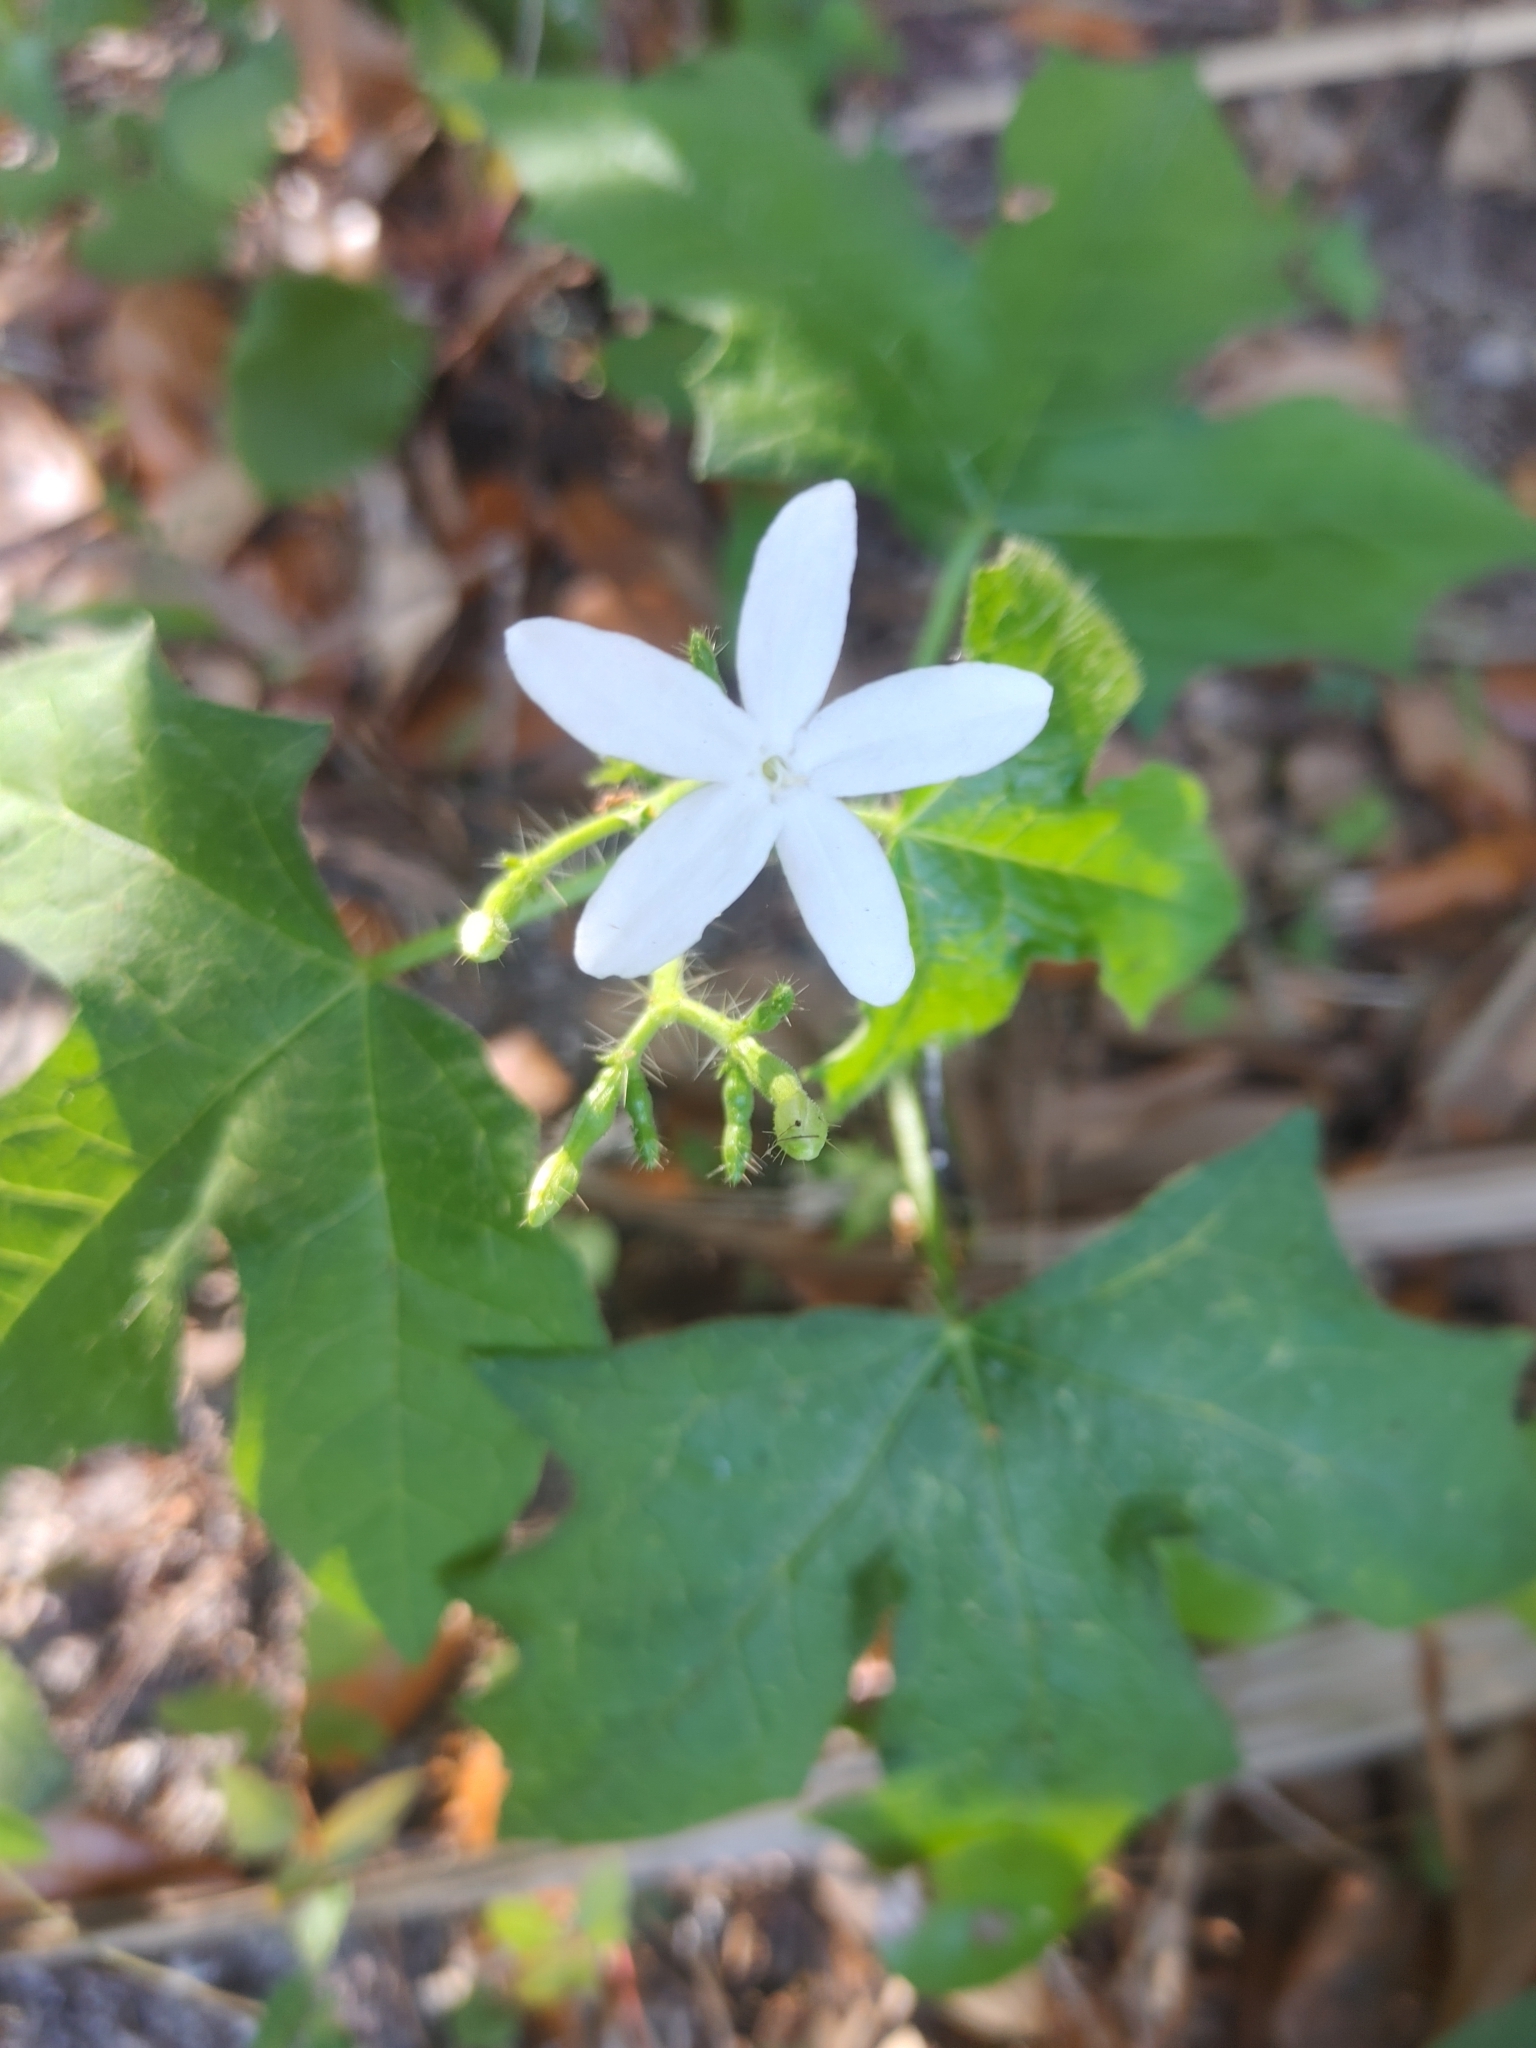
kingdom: Plantae
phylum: Tracheophyta
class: Magnoliopsida
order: Malpighiales
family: Euphorbiaceae
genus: Cnidoscolus
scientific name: Cnidoscolus stimulosus
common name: Bull-nettle
